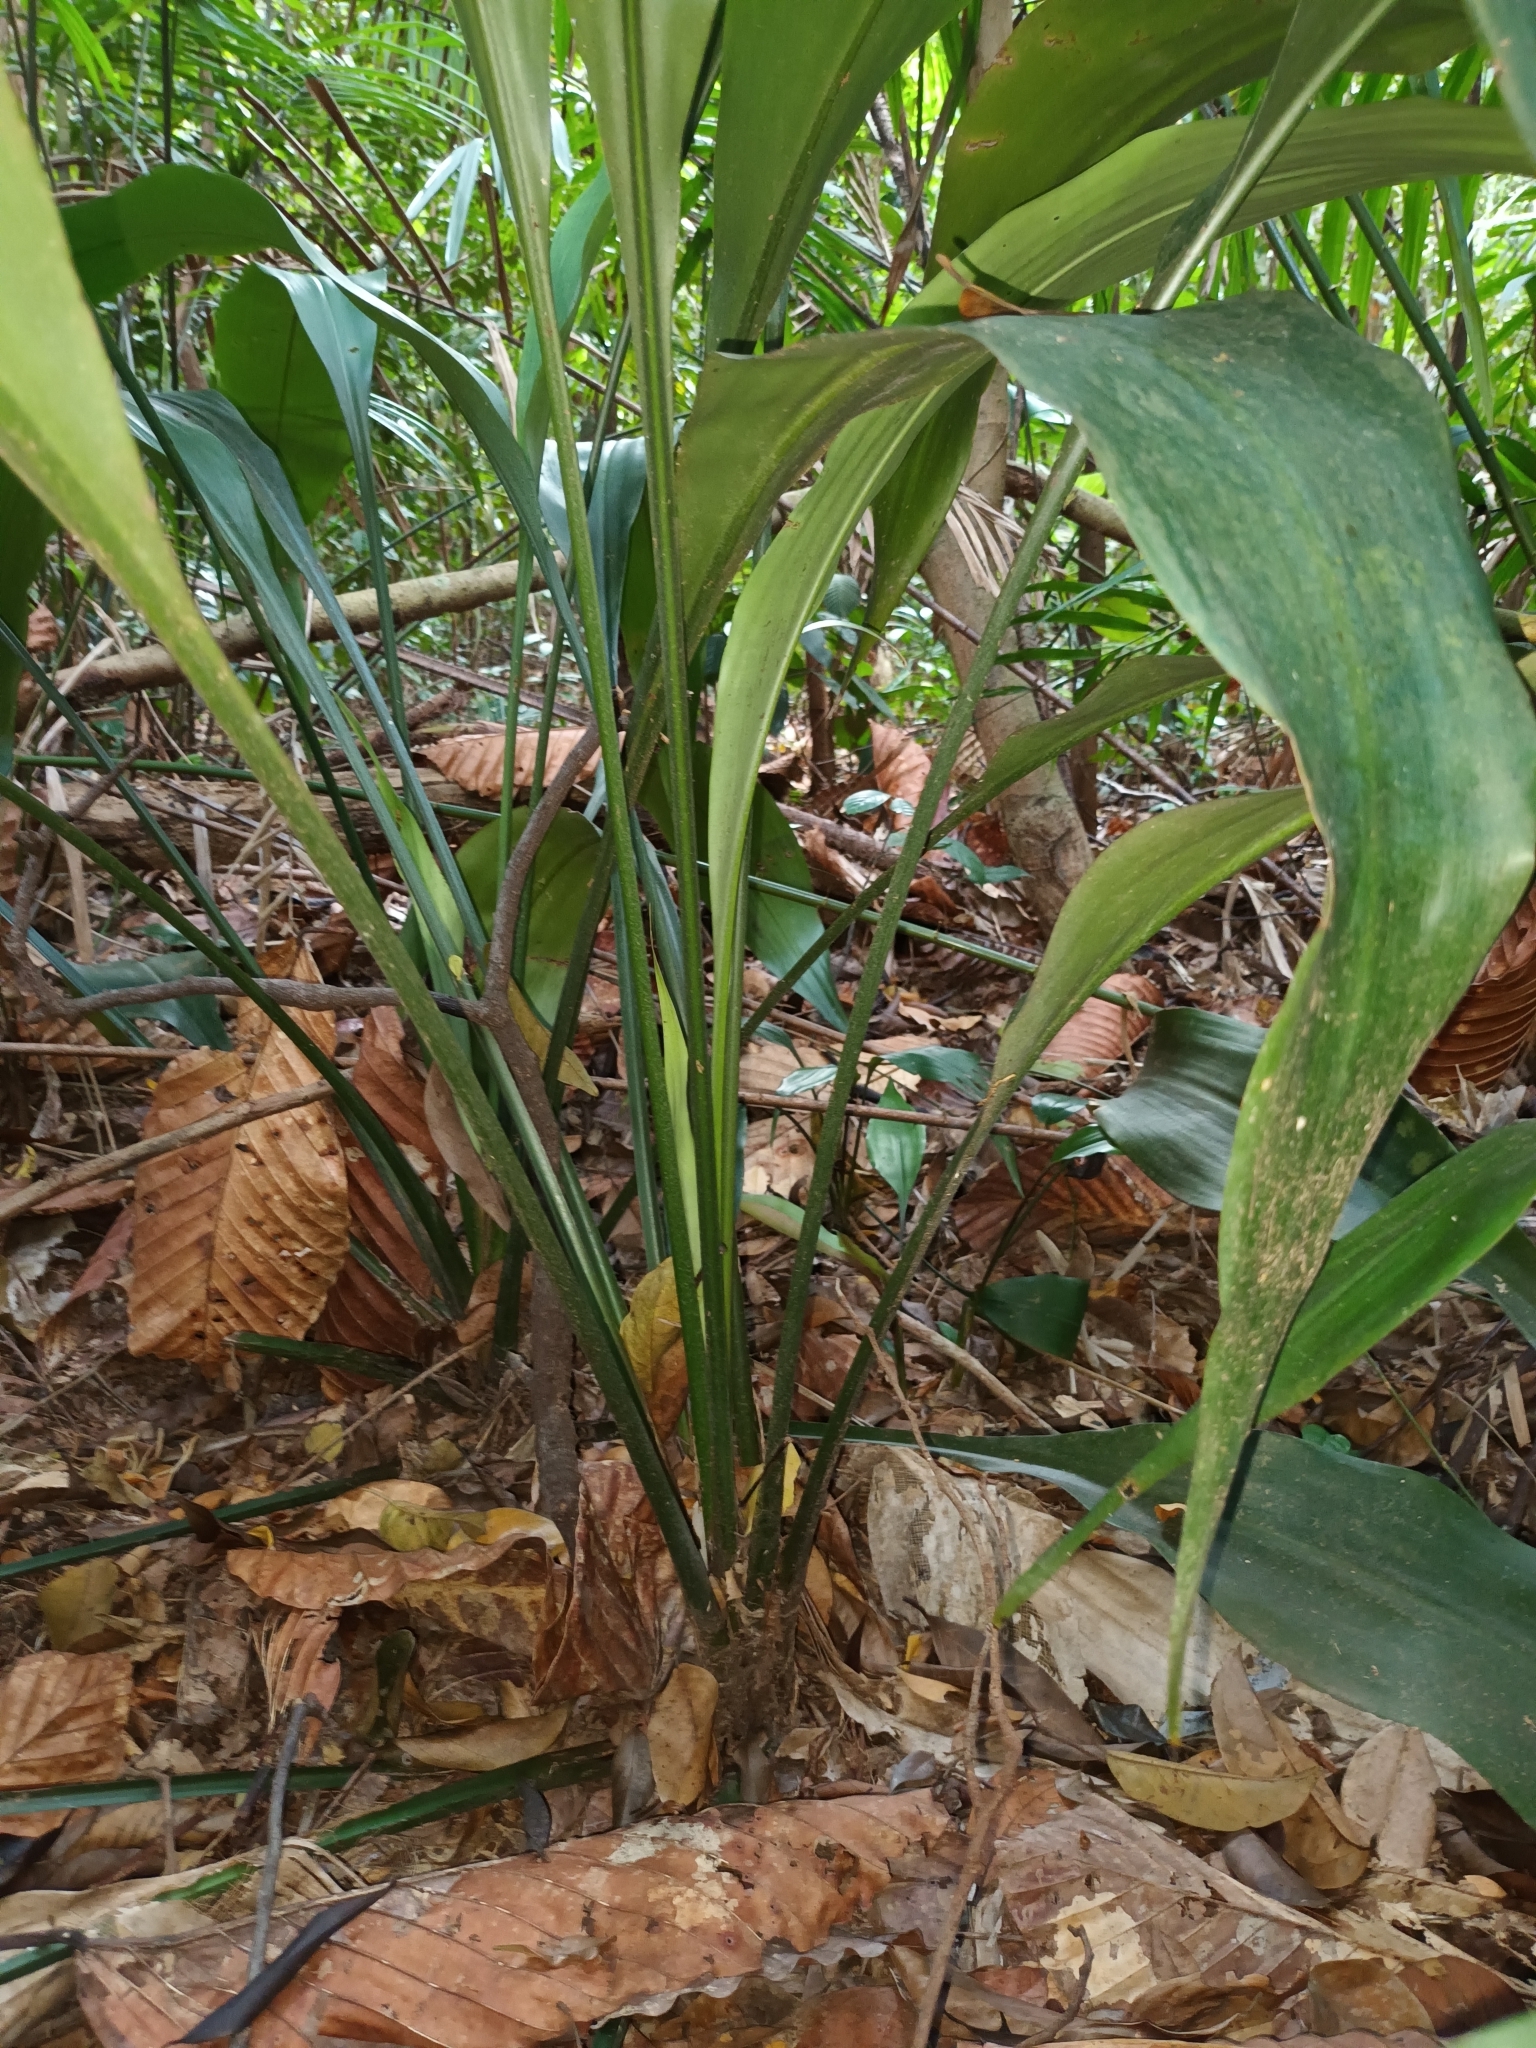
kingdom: Plantae
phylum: Tracheophyta
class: Liliopsida
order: Commelinales
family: Hanguanaceae
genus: Hanguana
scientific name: Hanguana rubinea
